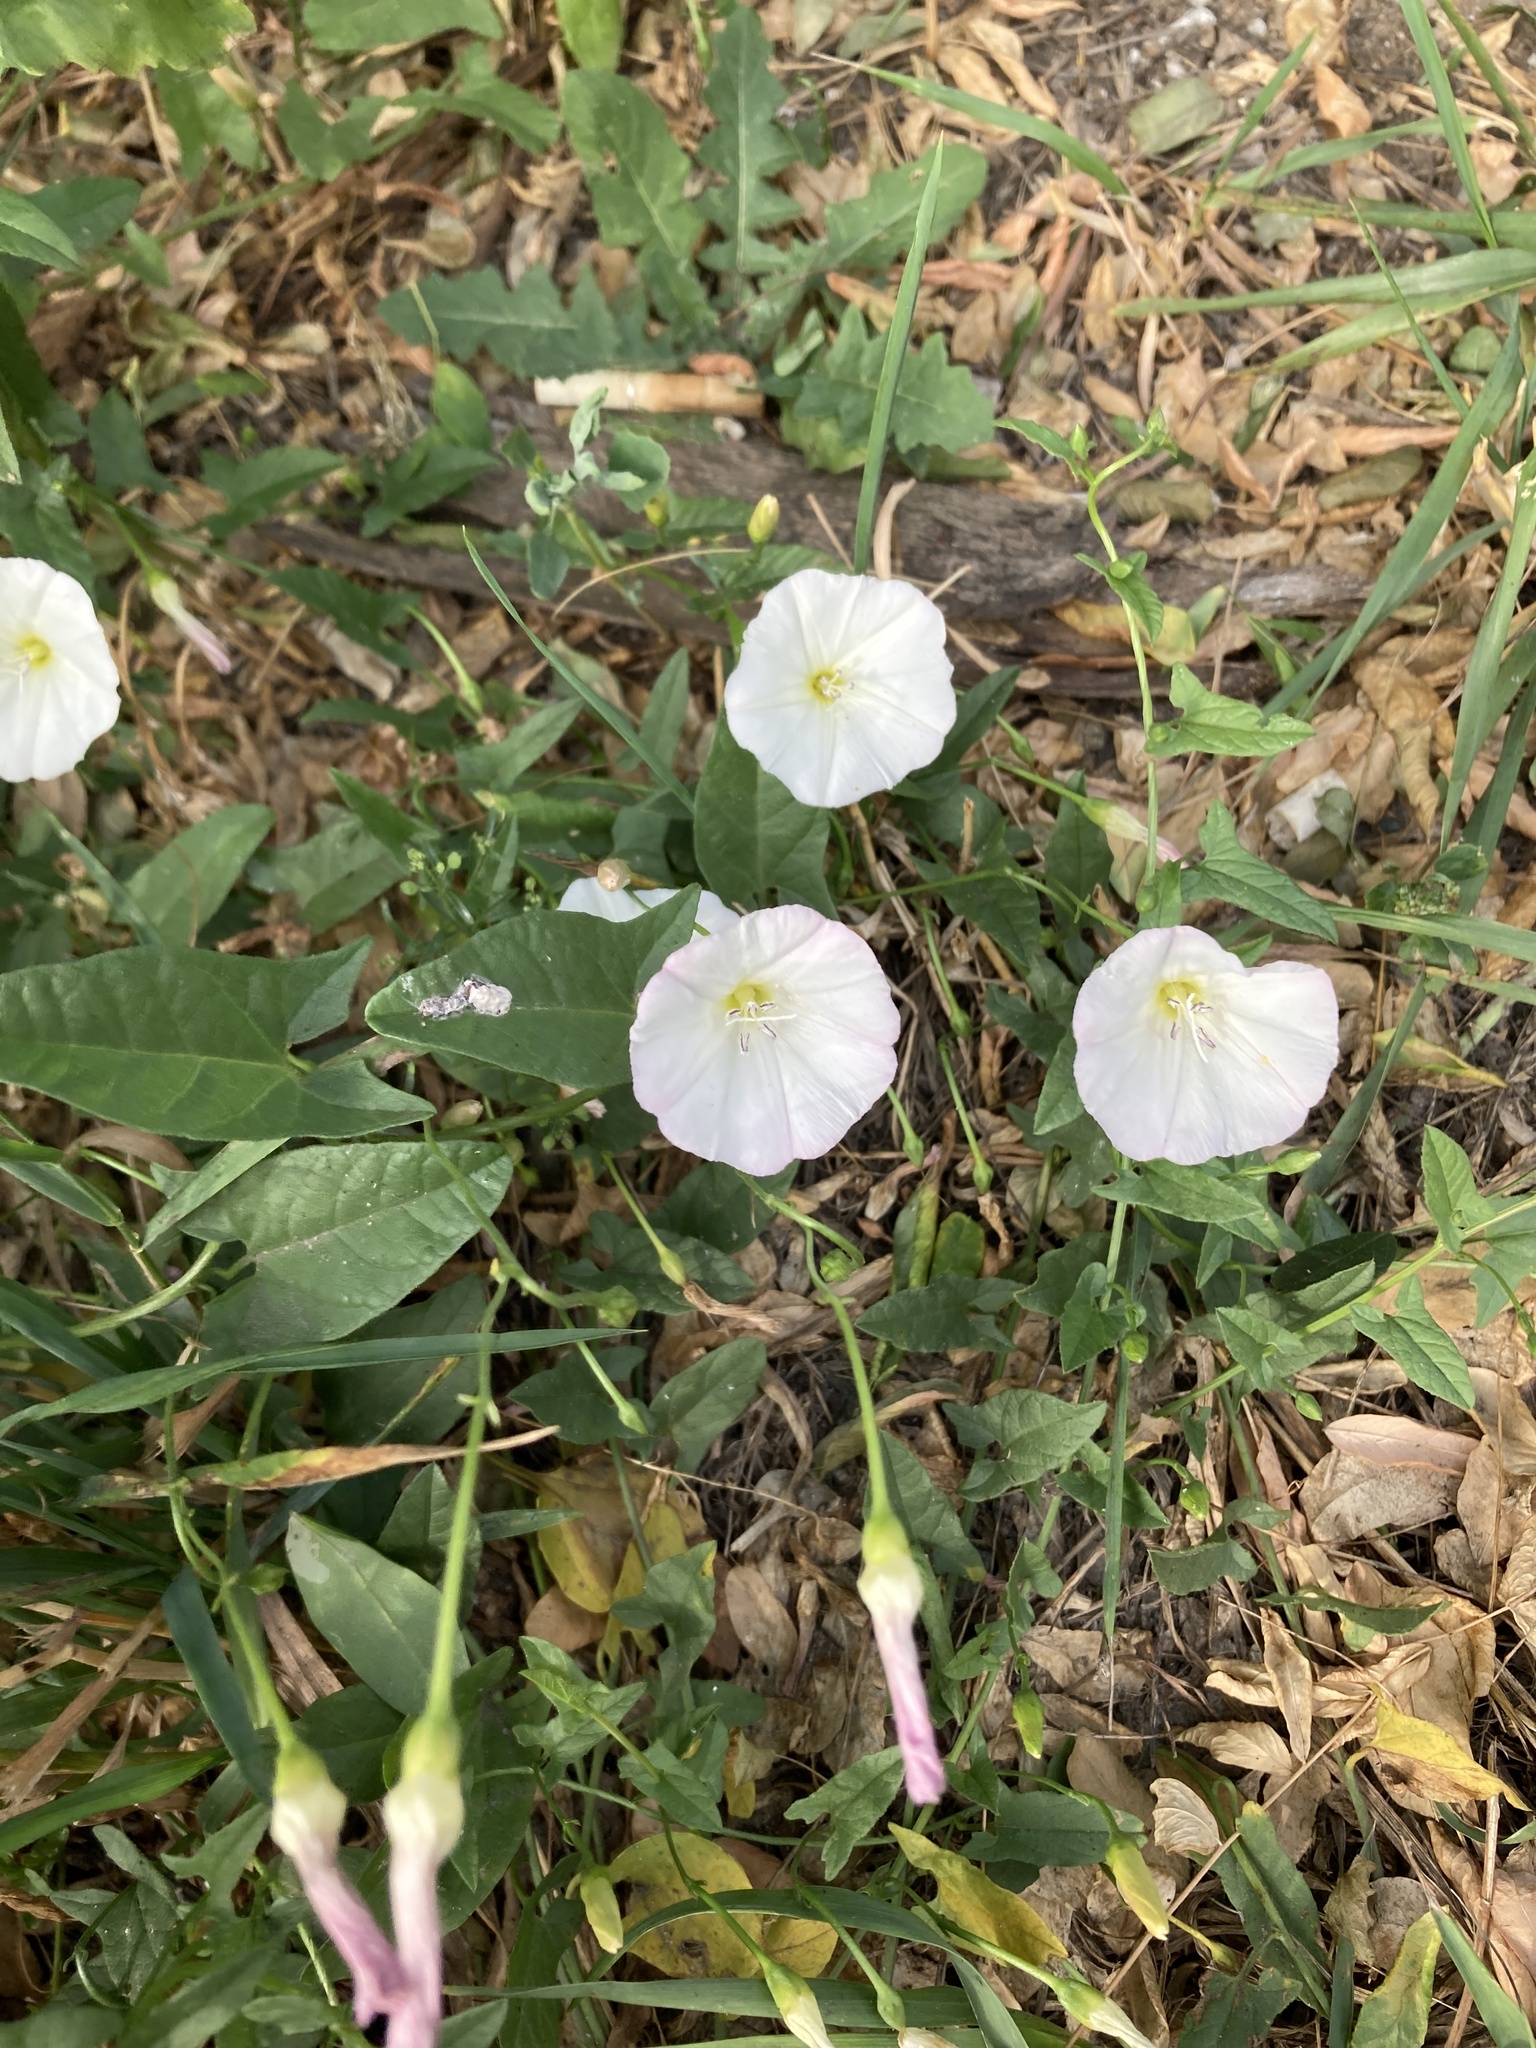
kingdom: Plantae
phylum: Tracheophyta
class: Magnoliopsida
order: Solanales
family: Convolvulaceae
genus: Convolvulus
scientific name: Convolvulus arvensis
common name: Field bindweed
